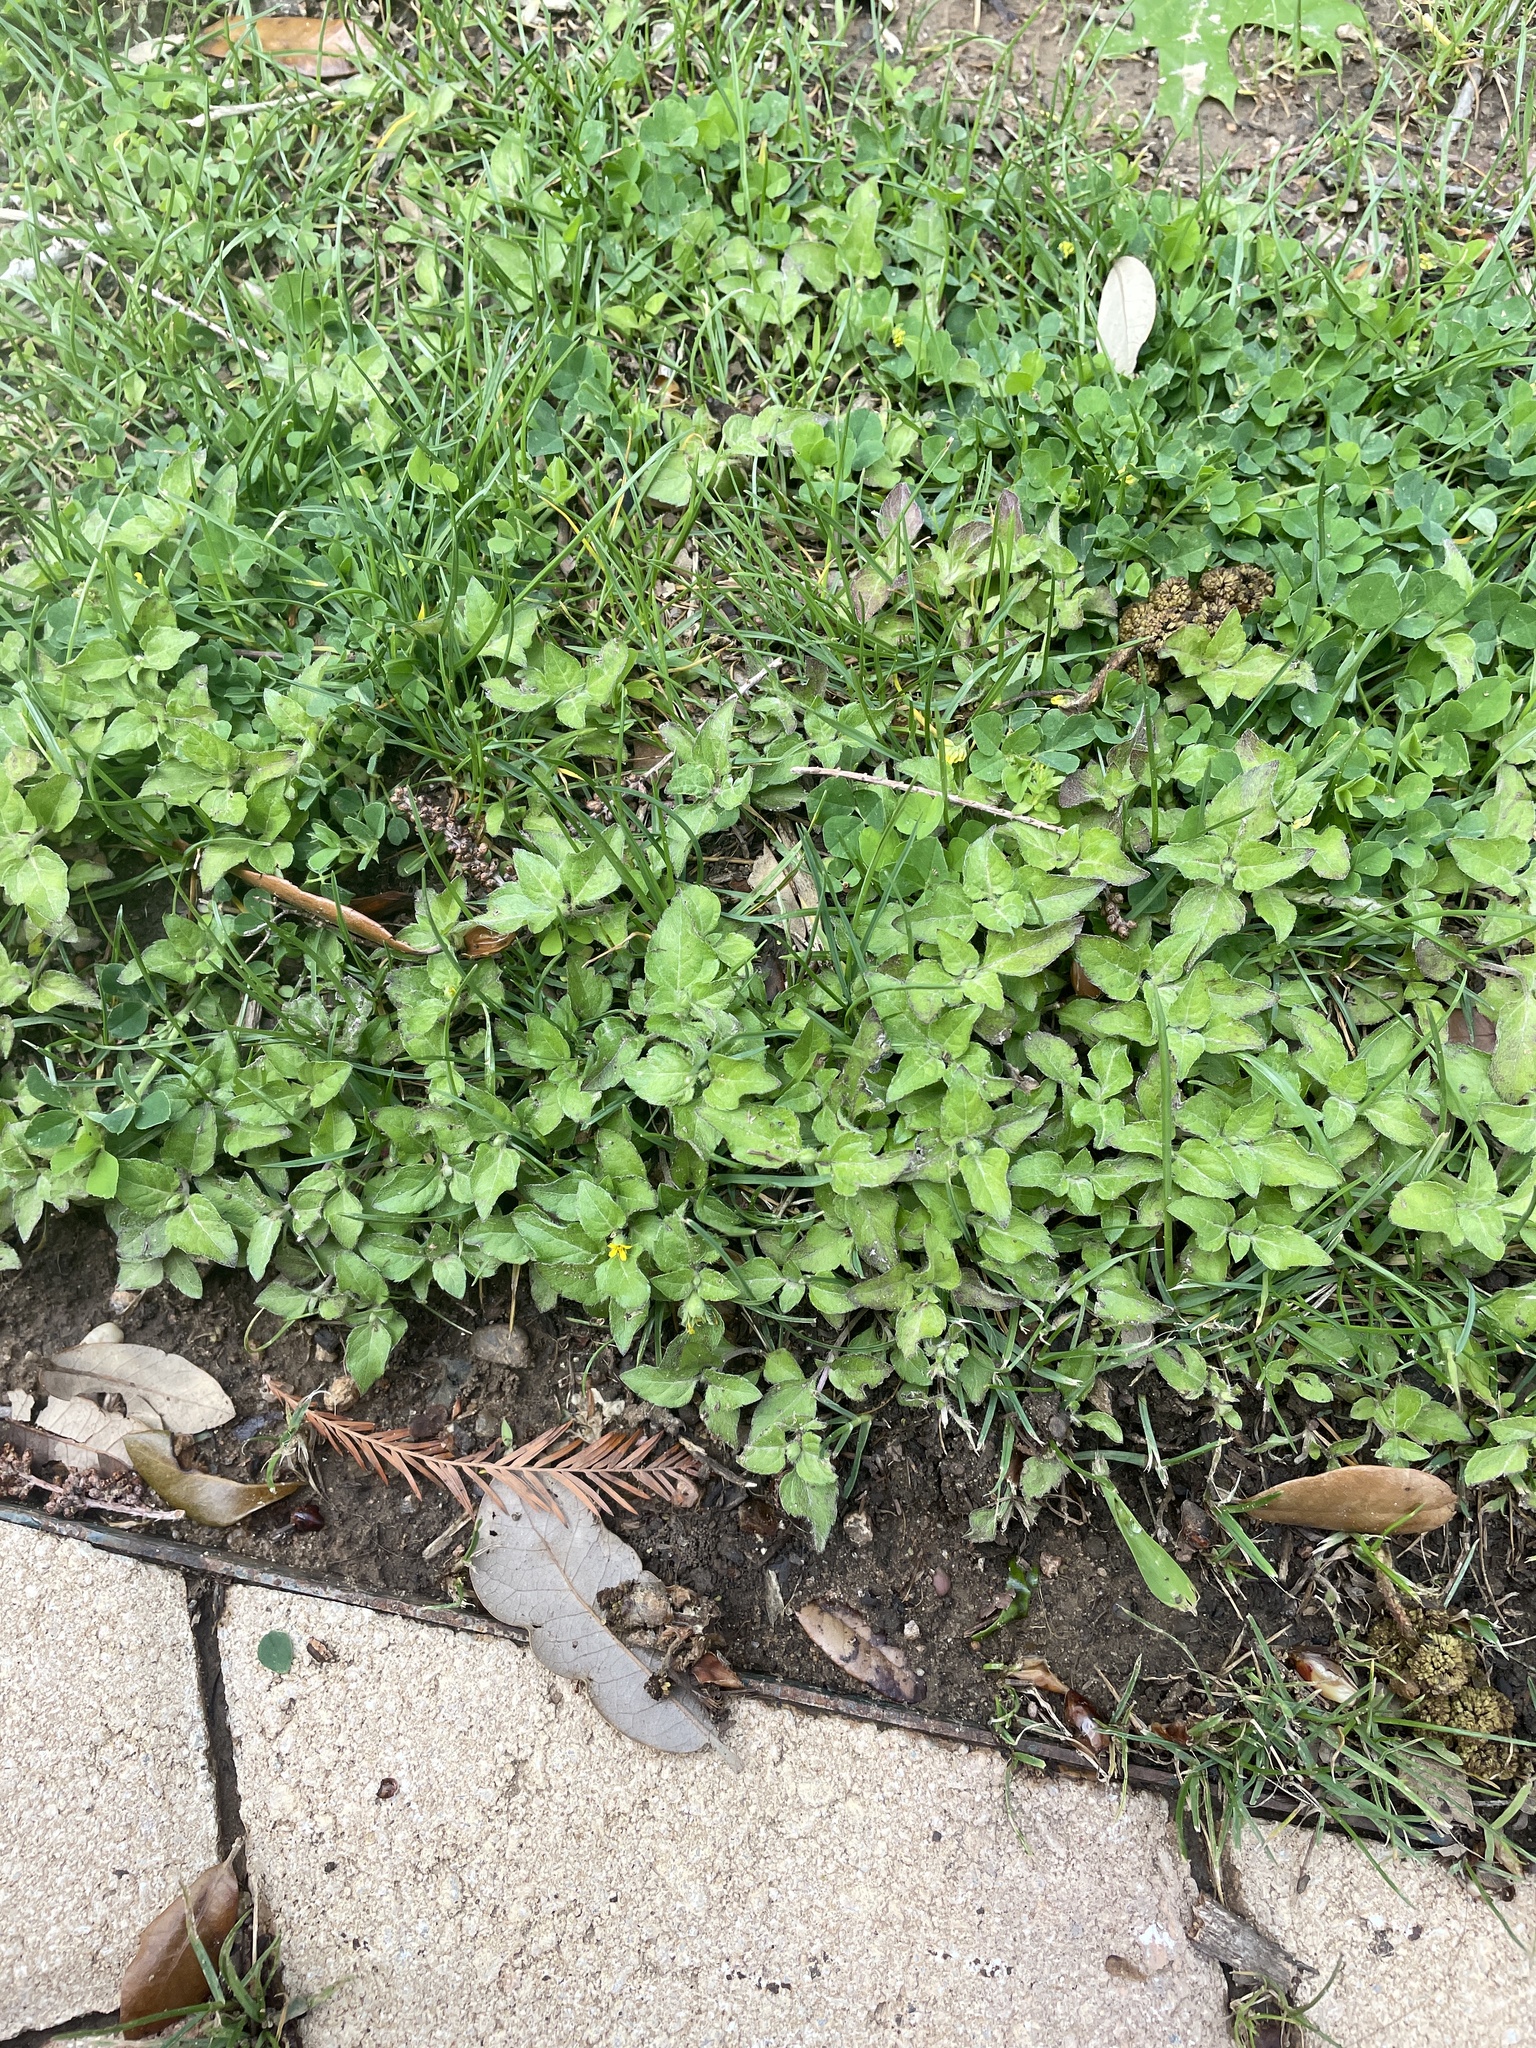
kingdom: Plantae
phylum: Tracheophyta
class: Magnoliopsida
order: Asterales
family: Asteraceae
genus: Calyptocarpus
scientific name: Calyptocarpus vialis
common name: Straggler daisy
